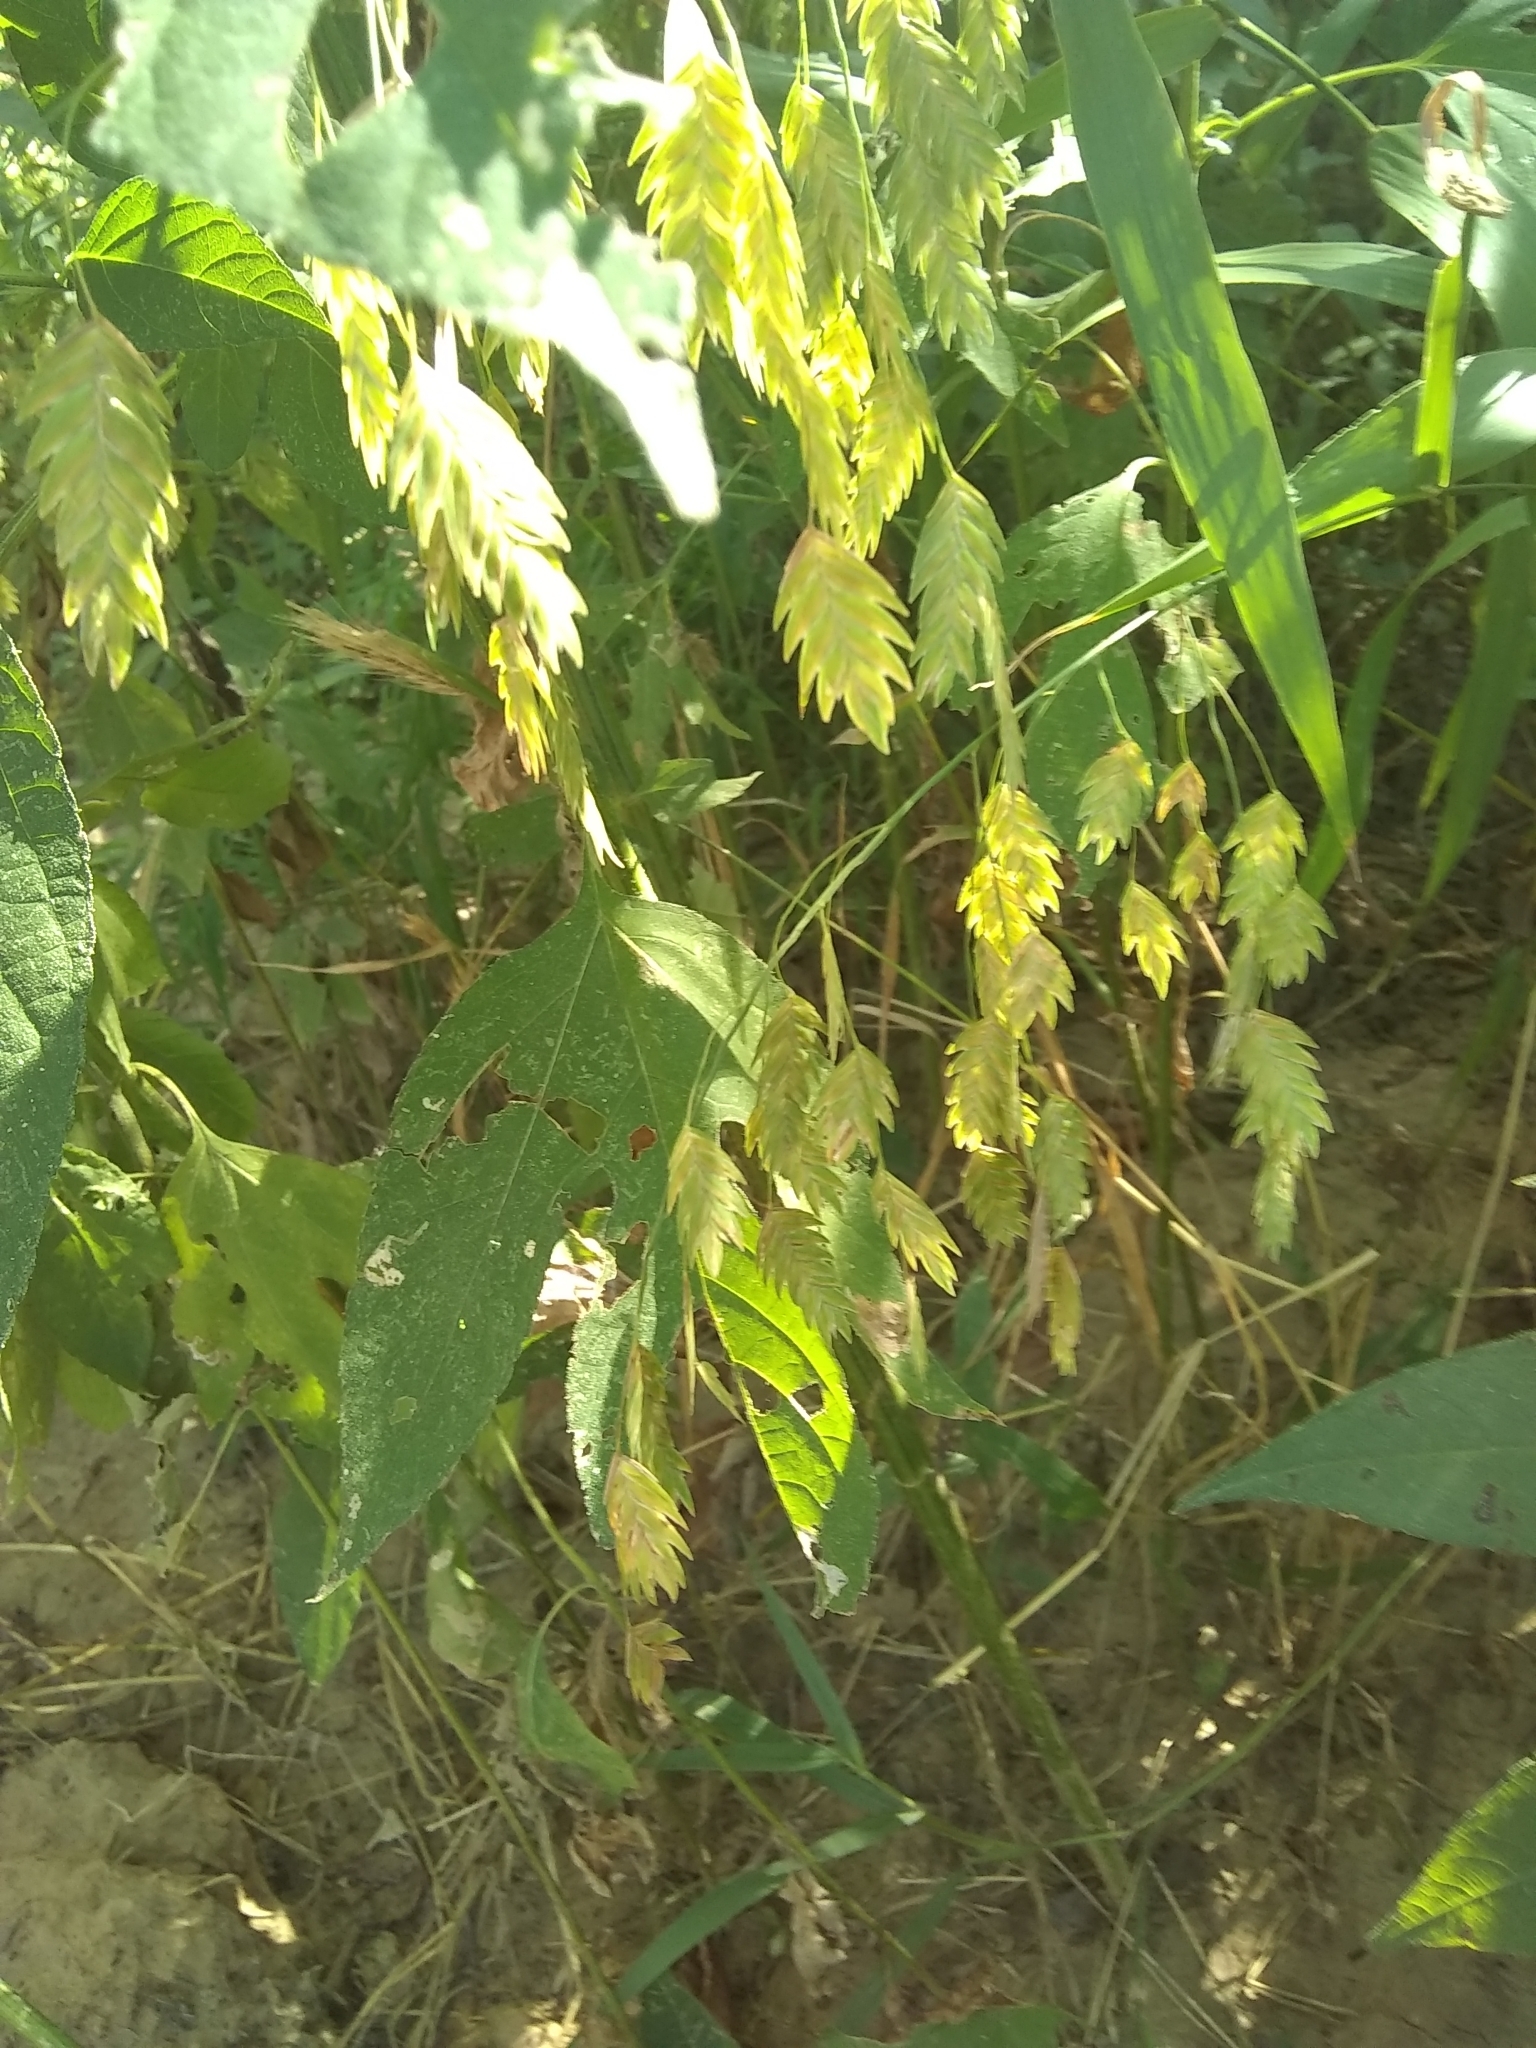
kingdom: Plantae
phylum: Tracheophyta
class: Liliopsida
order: Poales
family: Poaceae
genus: Chasmanthium
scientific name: Chasmanthium latifolium
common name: Broad-leaved chasmanthium
